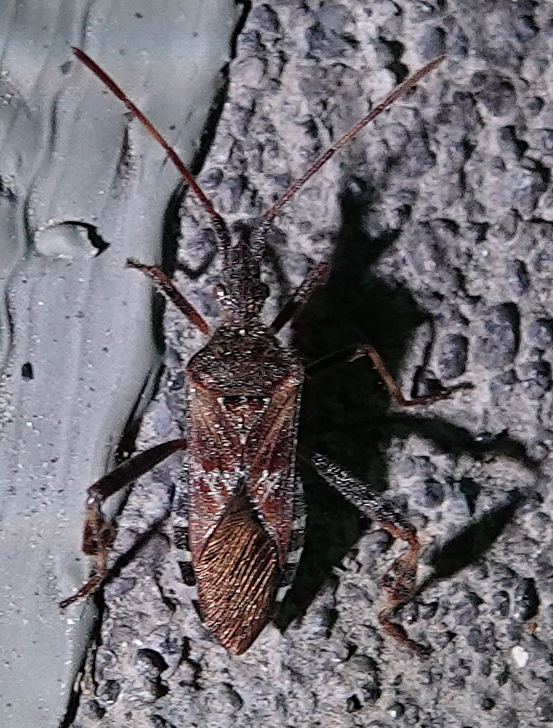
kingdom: Animalia
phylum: Arthropoda
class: Insecta
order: Hemiptera
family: Coreidae
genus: Leptoglossus
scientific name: Leptoglossus occidentalis
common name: Western conifer-seed bug
